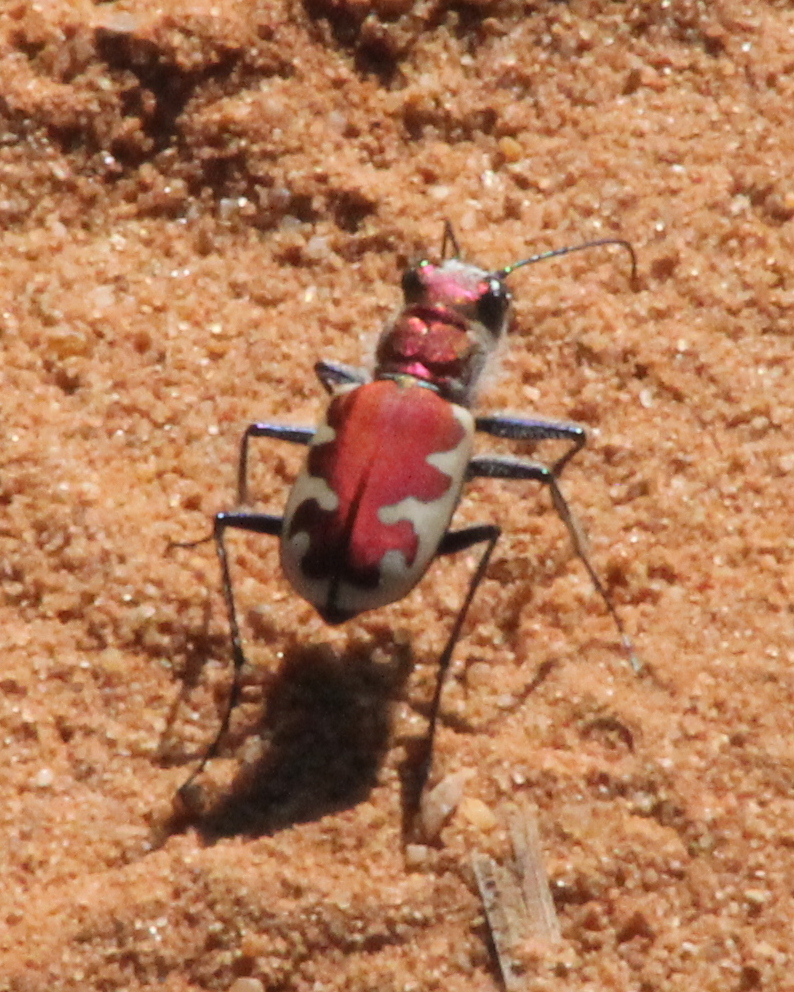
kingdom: Animalia
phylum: Arthropoda
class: Insecta
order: Coleoptera
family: Carabidae
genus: Cicindela
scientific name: Cicindela formosa
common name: Big sand tiger beetle
